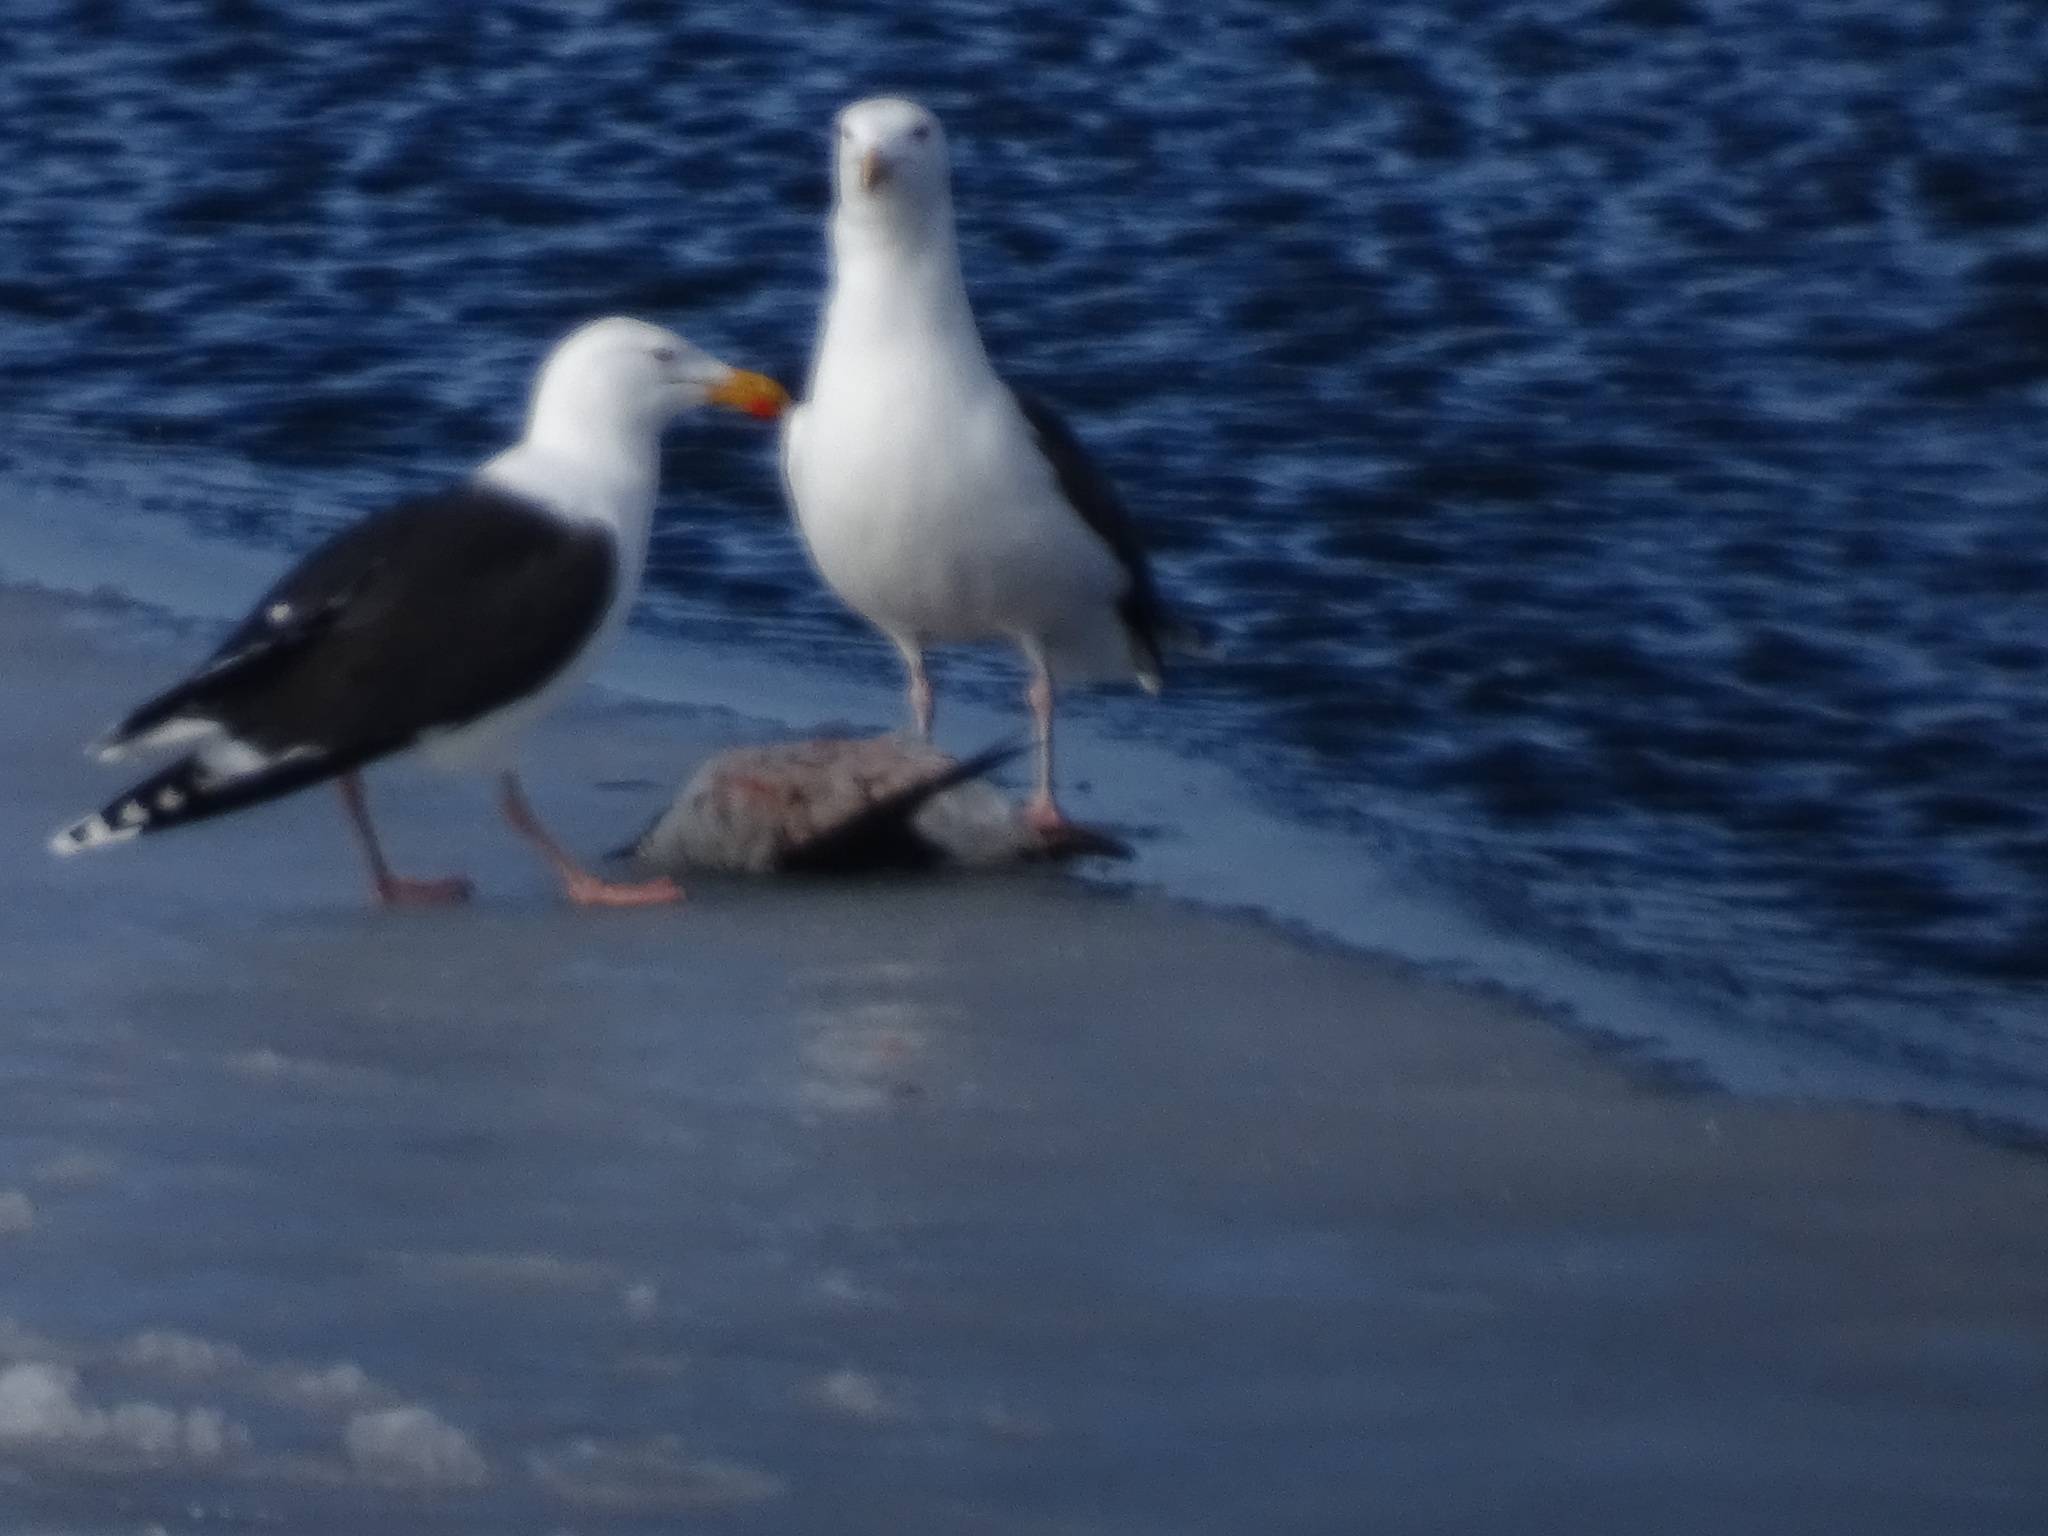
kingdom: Animalia
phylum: Chordata
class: Aves
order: Charadriiformes
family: Laridae
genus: Larus
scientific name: Larus marinus
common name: Great black-backed gull
